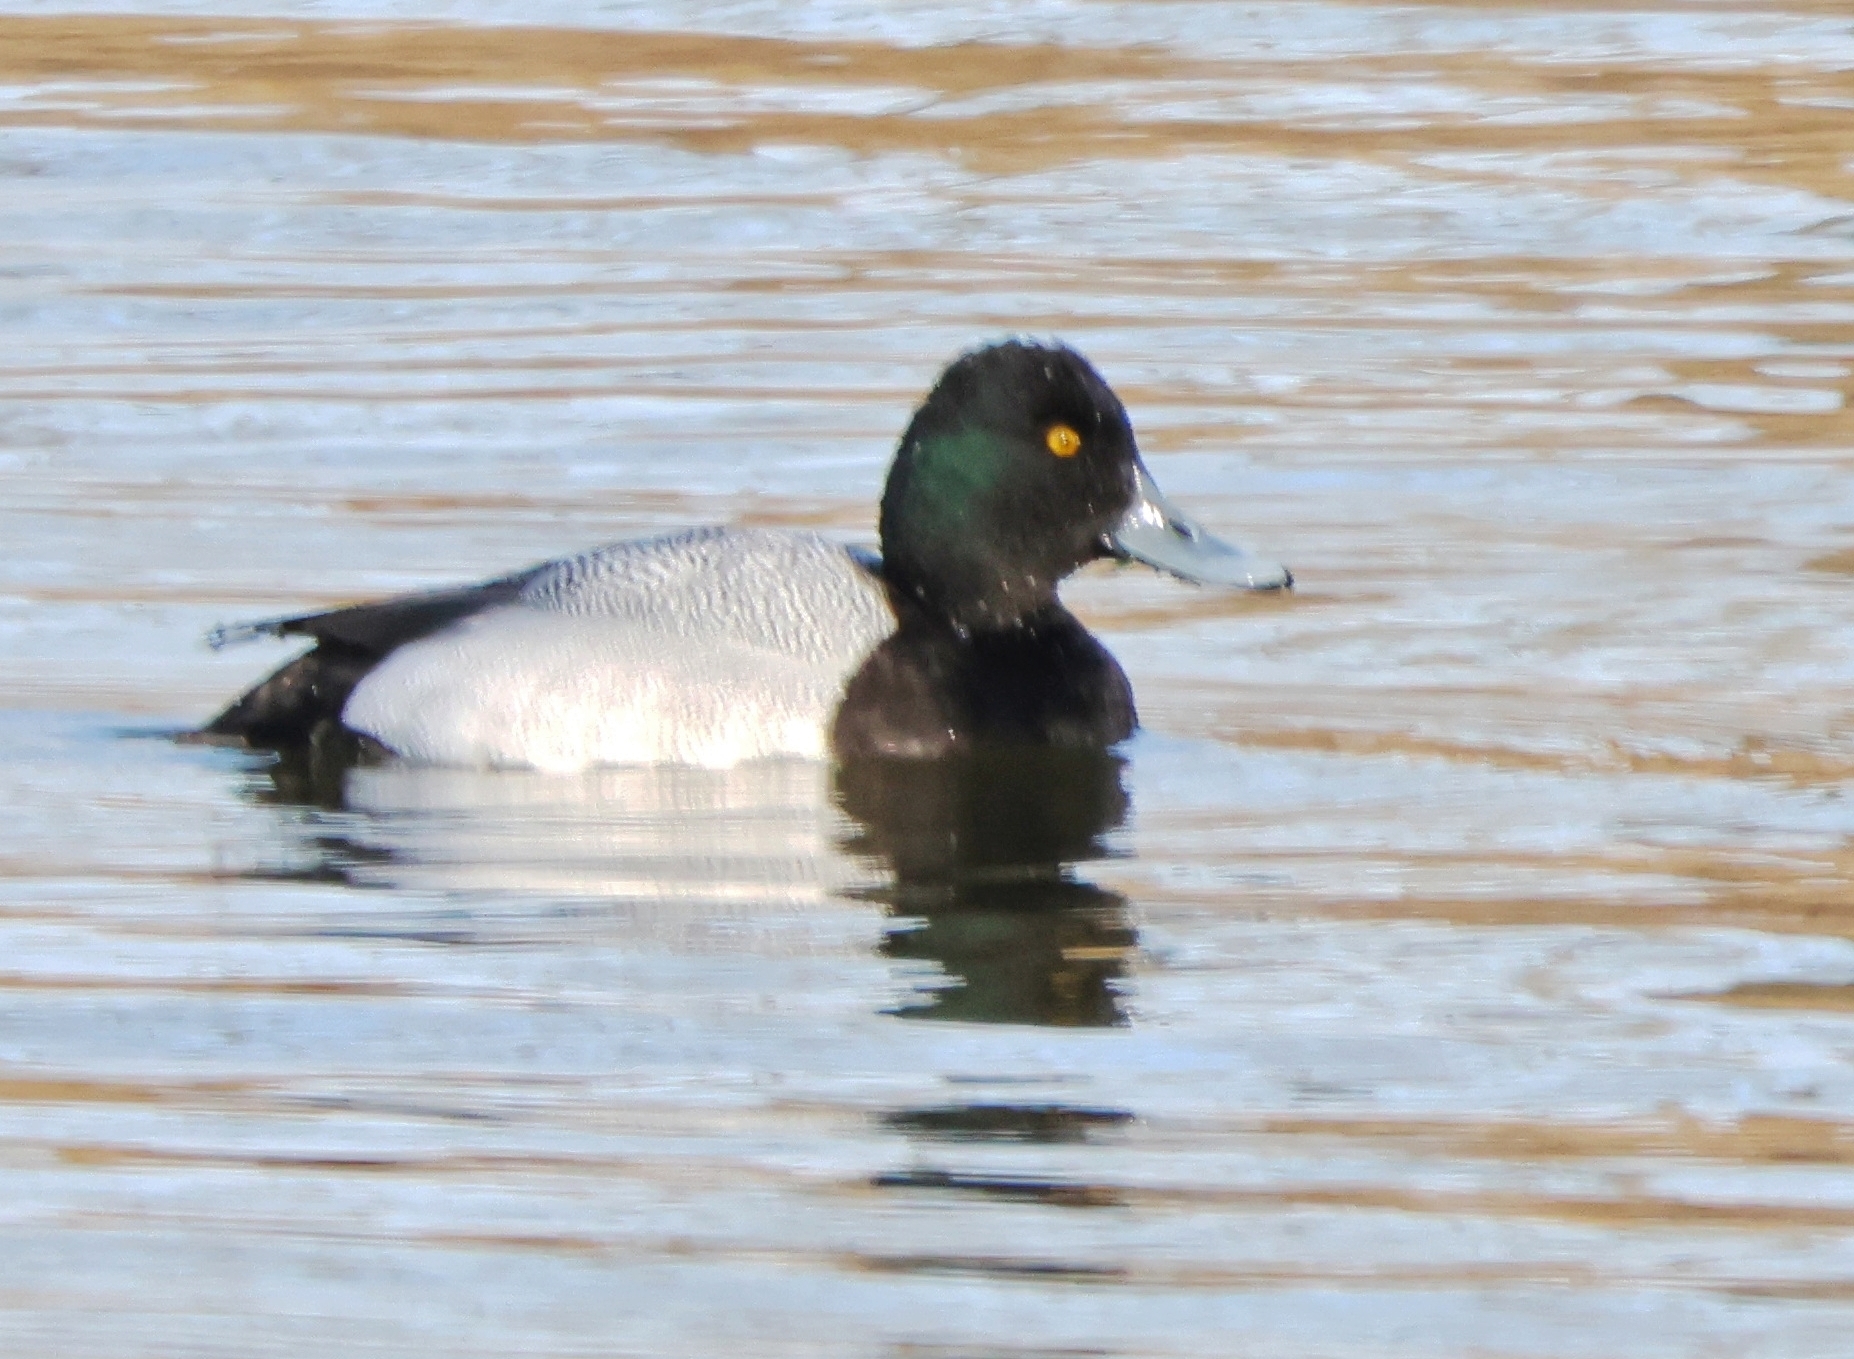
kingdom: Animalia
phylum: Chordata
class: Aves
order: Anseriformes
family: Anatidae
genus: Aythya
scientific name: Aythya marila
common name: Greater scaup
